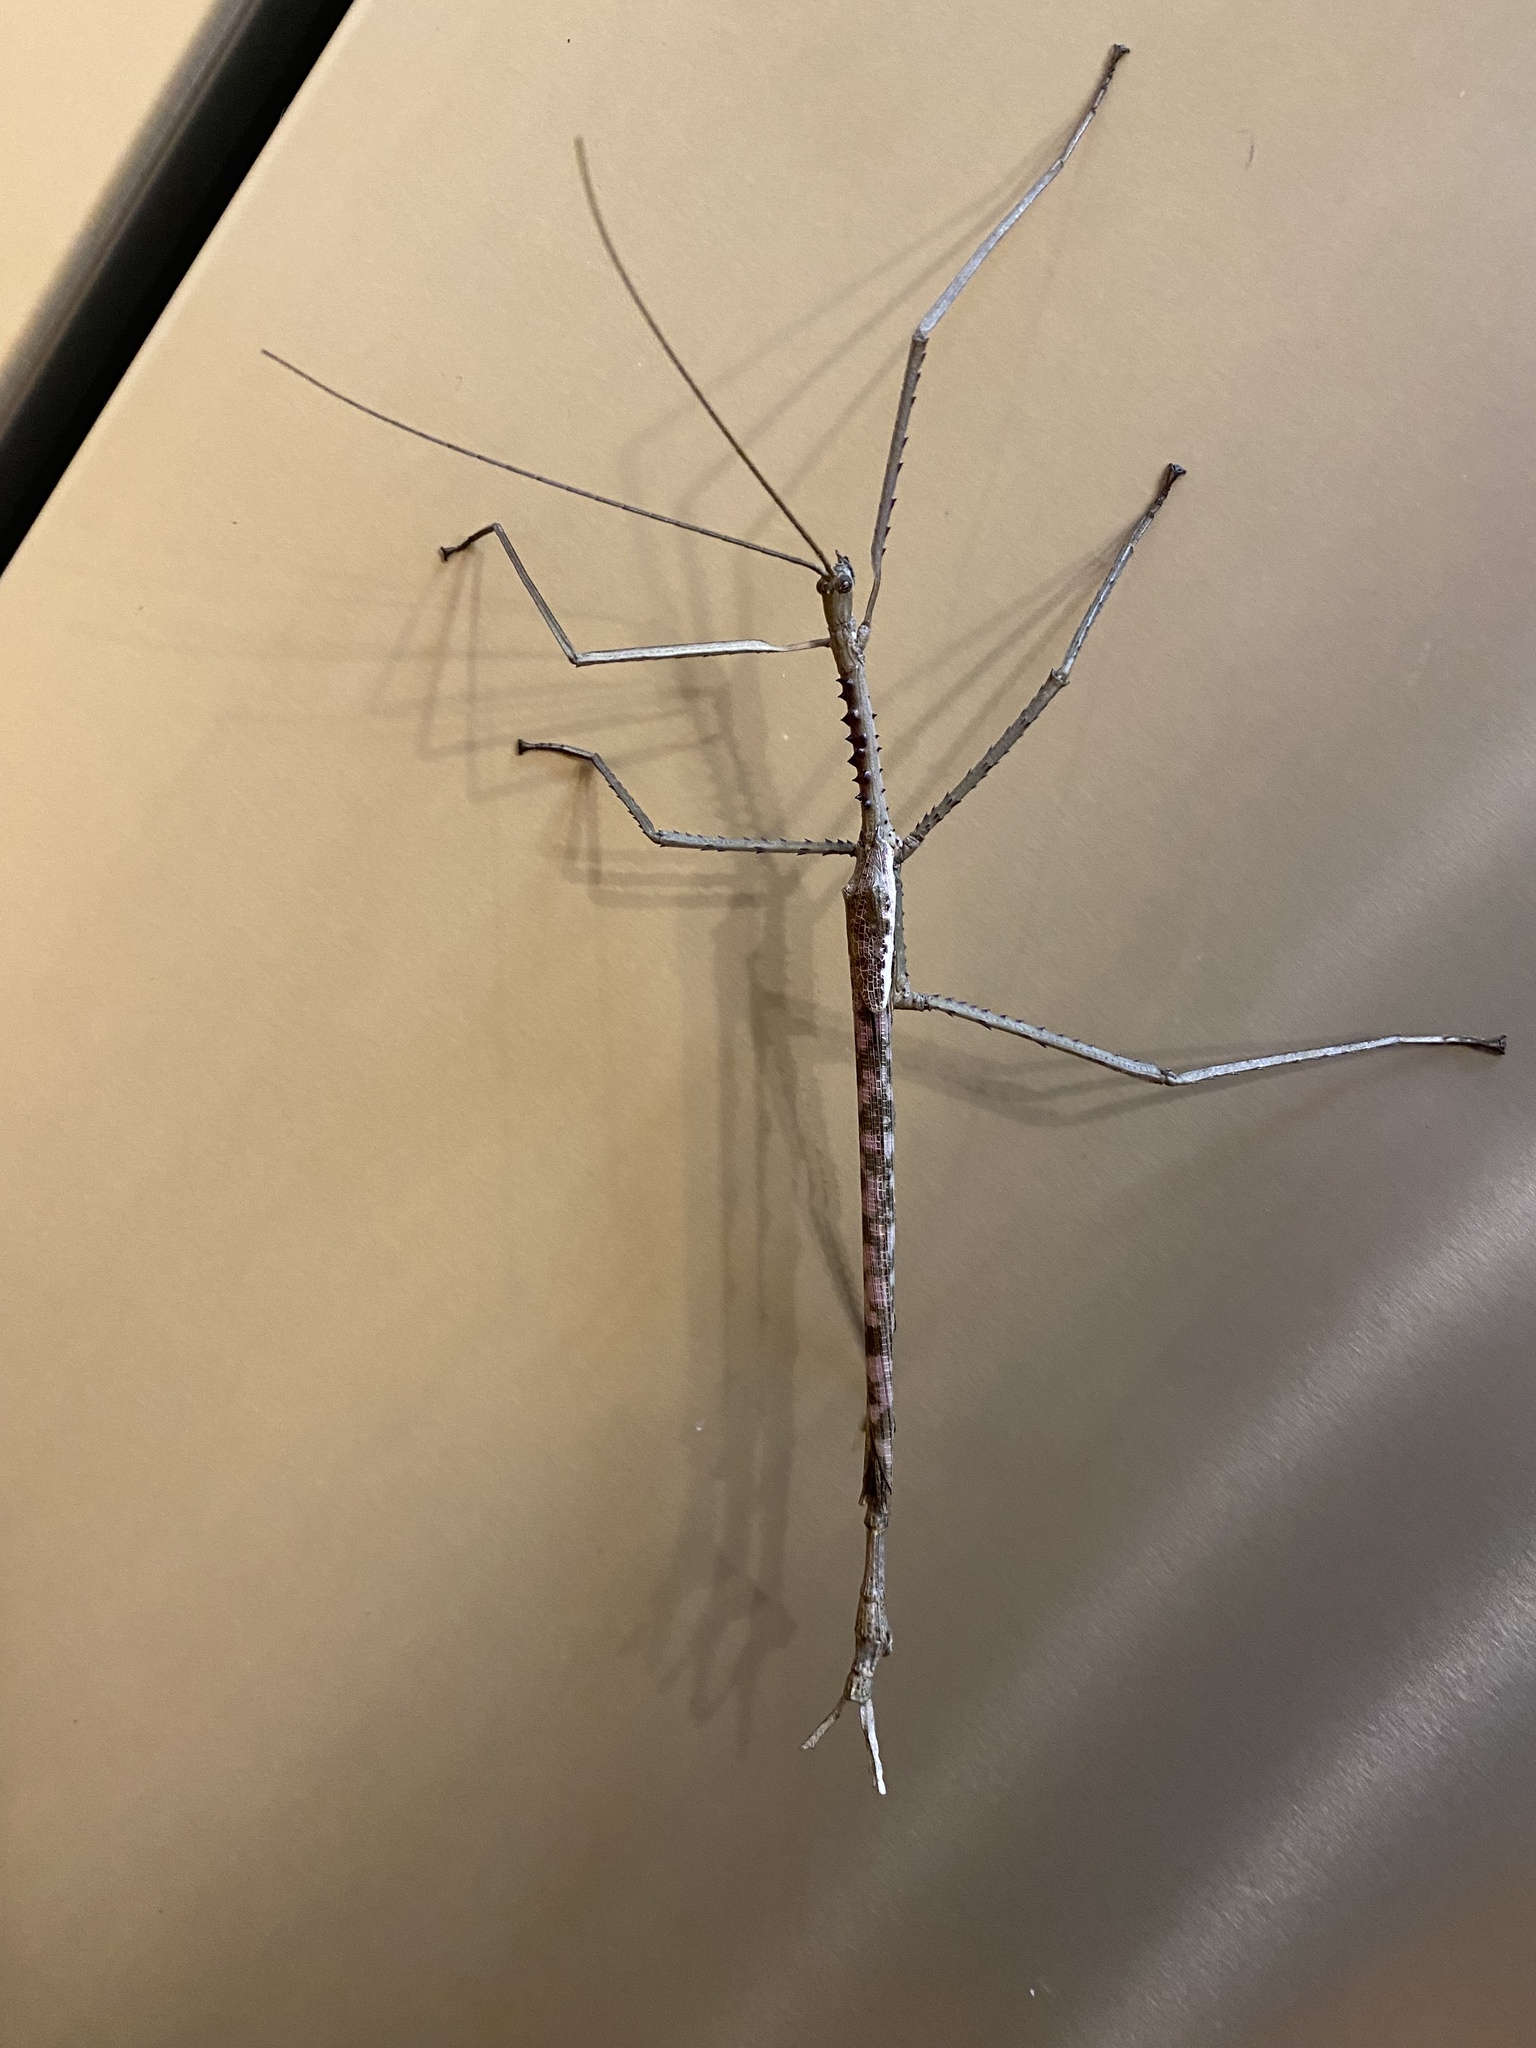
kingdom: Animalia
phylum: Arthropoda
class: Insecta
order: Phasmida
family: Phasmatidae
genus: Acrophylla
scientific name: Acrophylla titan
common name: Titan stick insect
